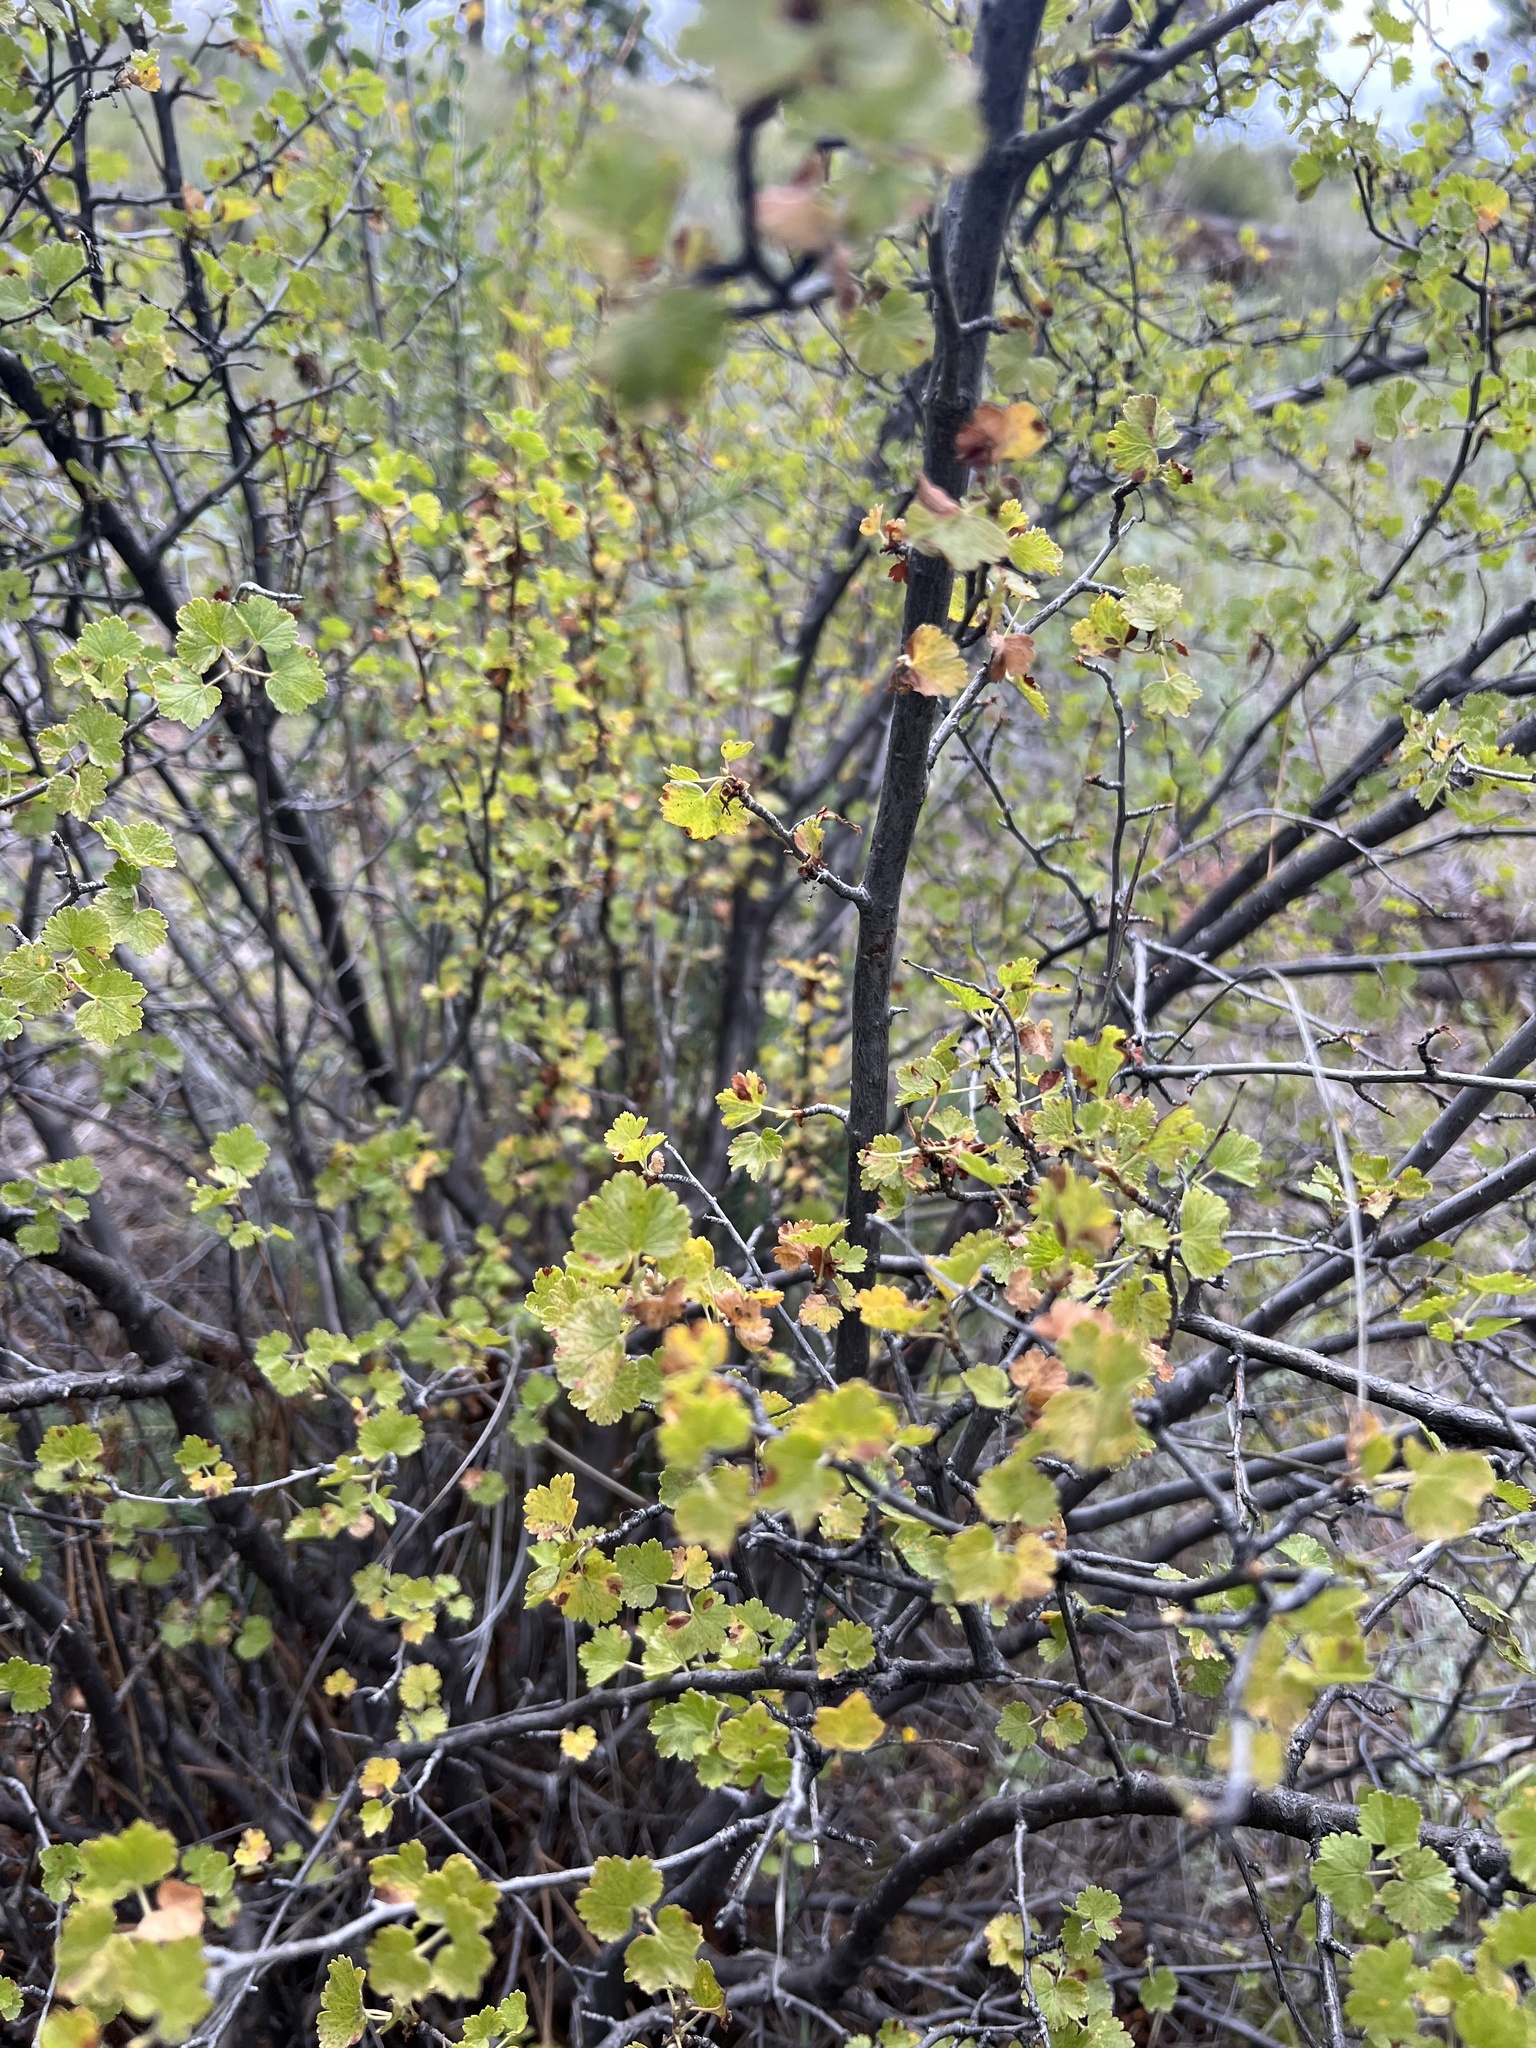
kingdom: Plantae
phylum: Tracheophyta
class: Magnoliopsida
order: Saxifragales
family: Grossulariaceae
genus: Ribes
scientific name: Ribes cereum
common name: Wax currant
